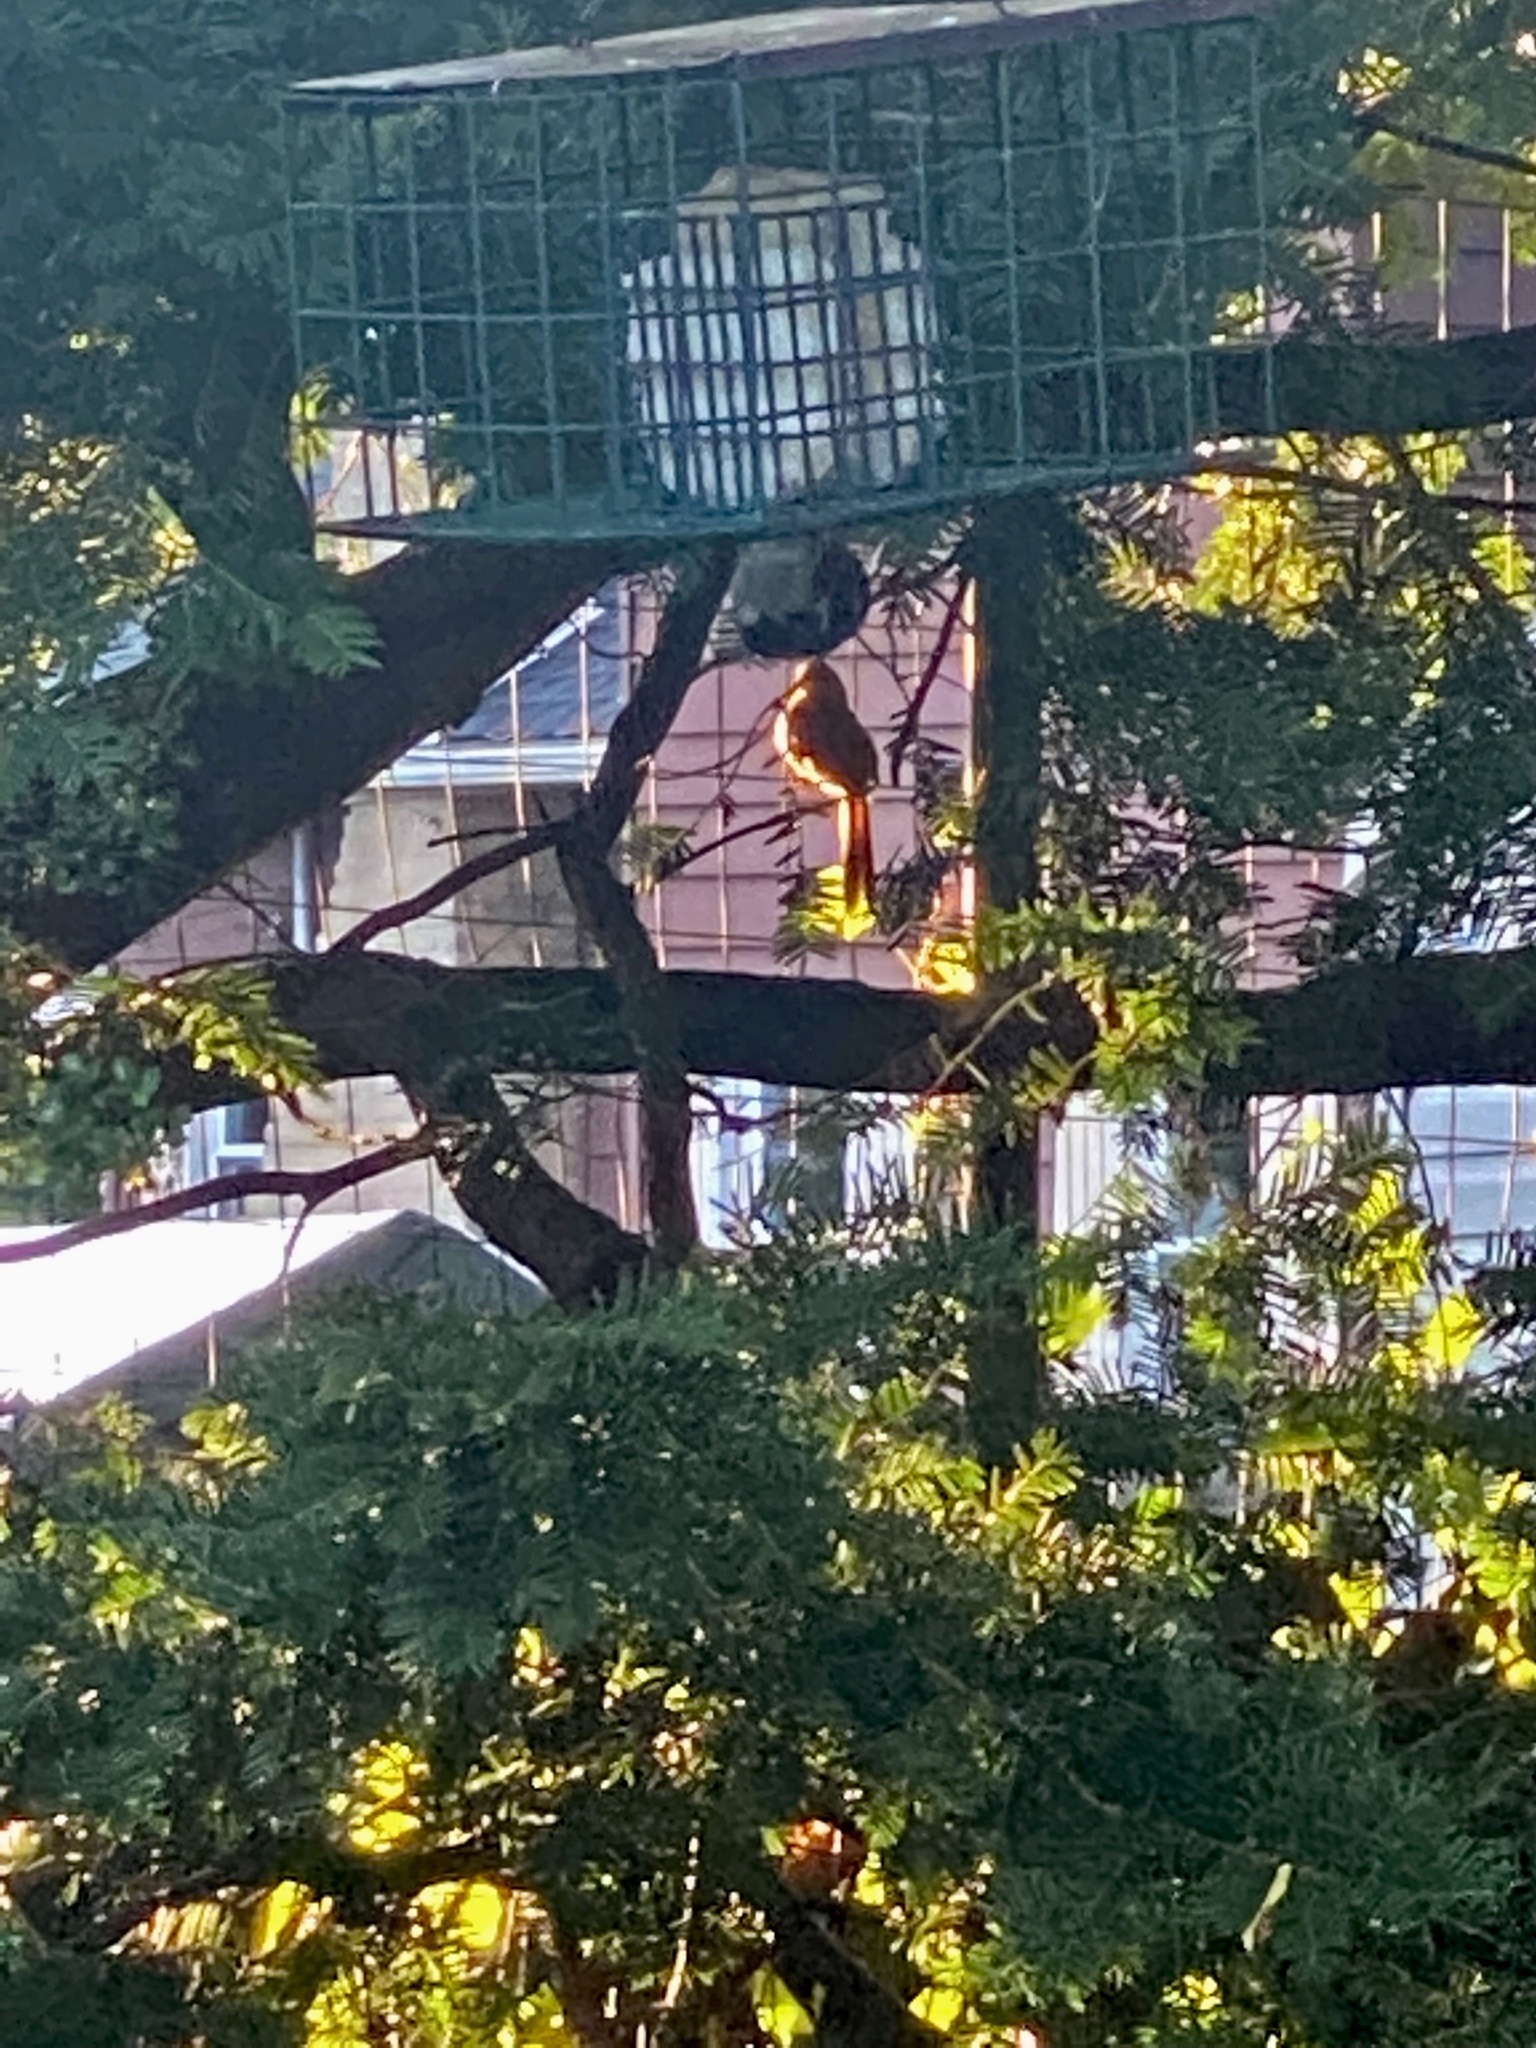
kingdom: Animalia
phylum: Chordata
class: Aves
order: Passeriformes
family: Cardinalidae
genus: Cardinalis
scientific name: Cardinalis cardinalis
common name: Northern cardinal
